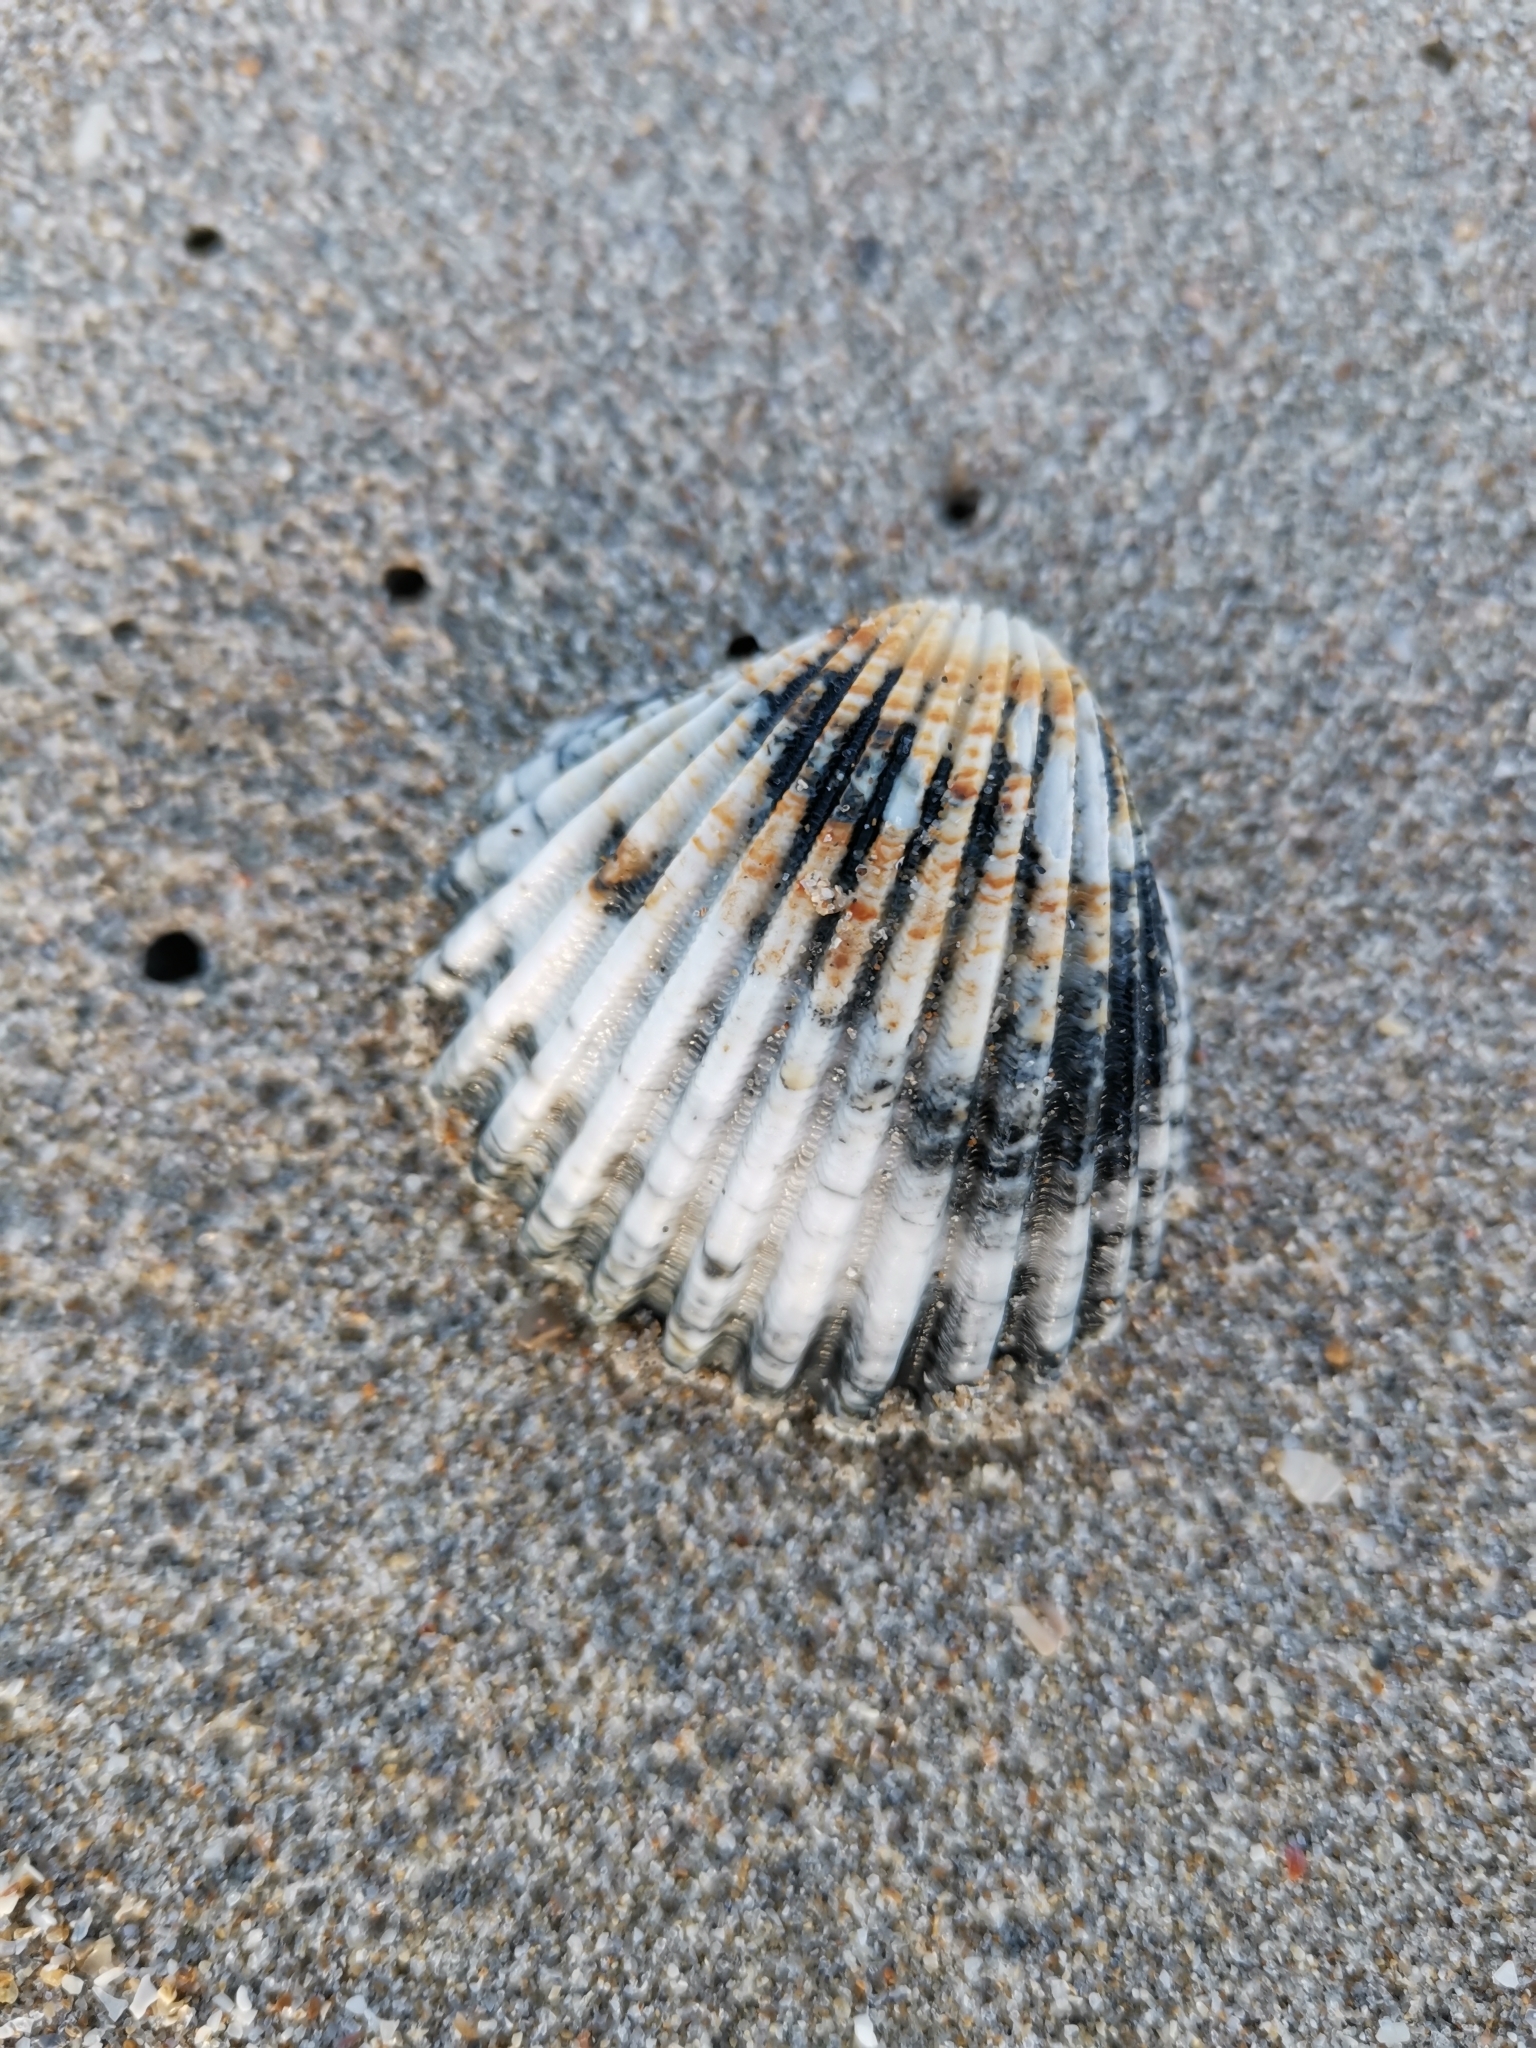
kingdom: Animalia
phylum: Mollusca
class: Bivalvia
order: Cardiida
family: Cardiidae
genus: Acanthocardia
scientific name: Acanthocardia tuberculata
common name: Rough cockle
